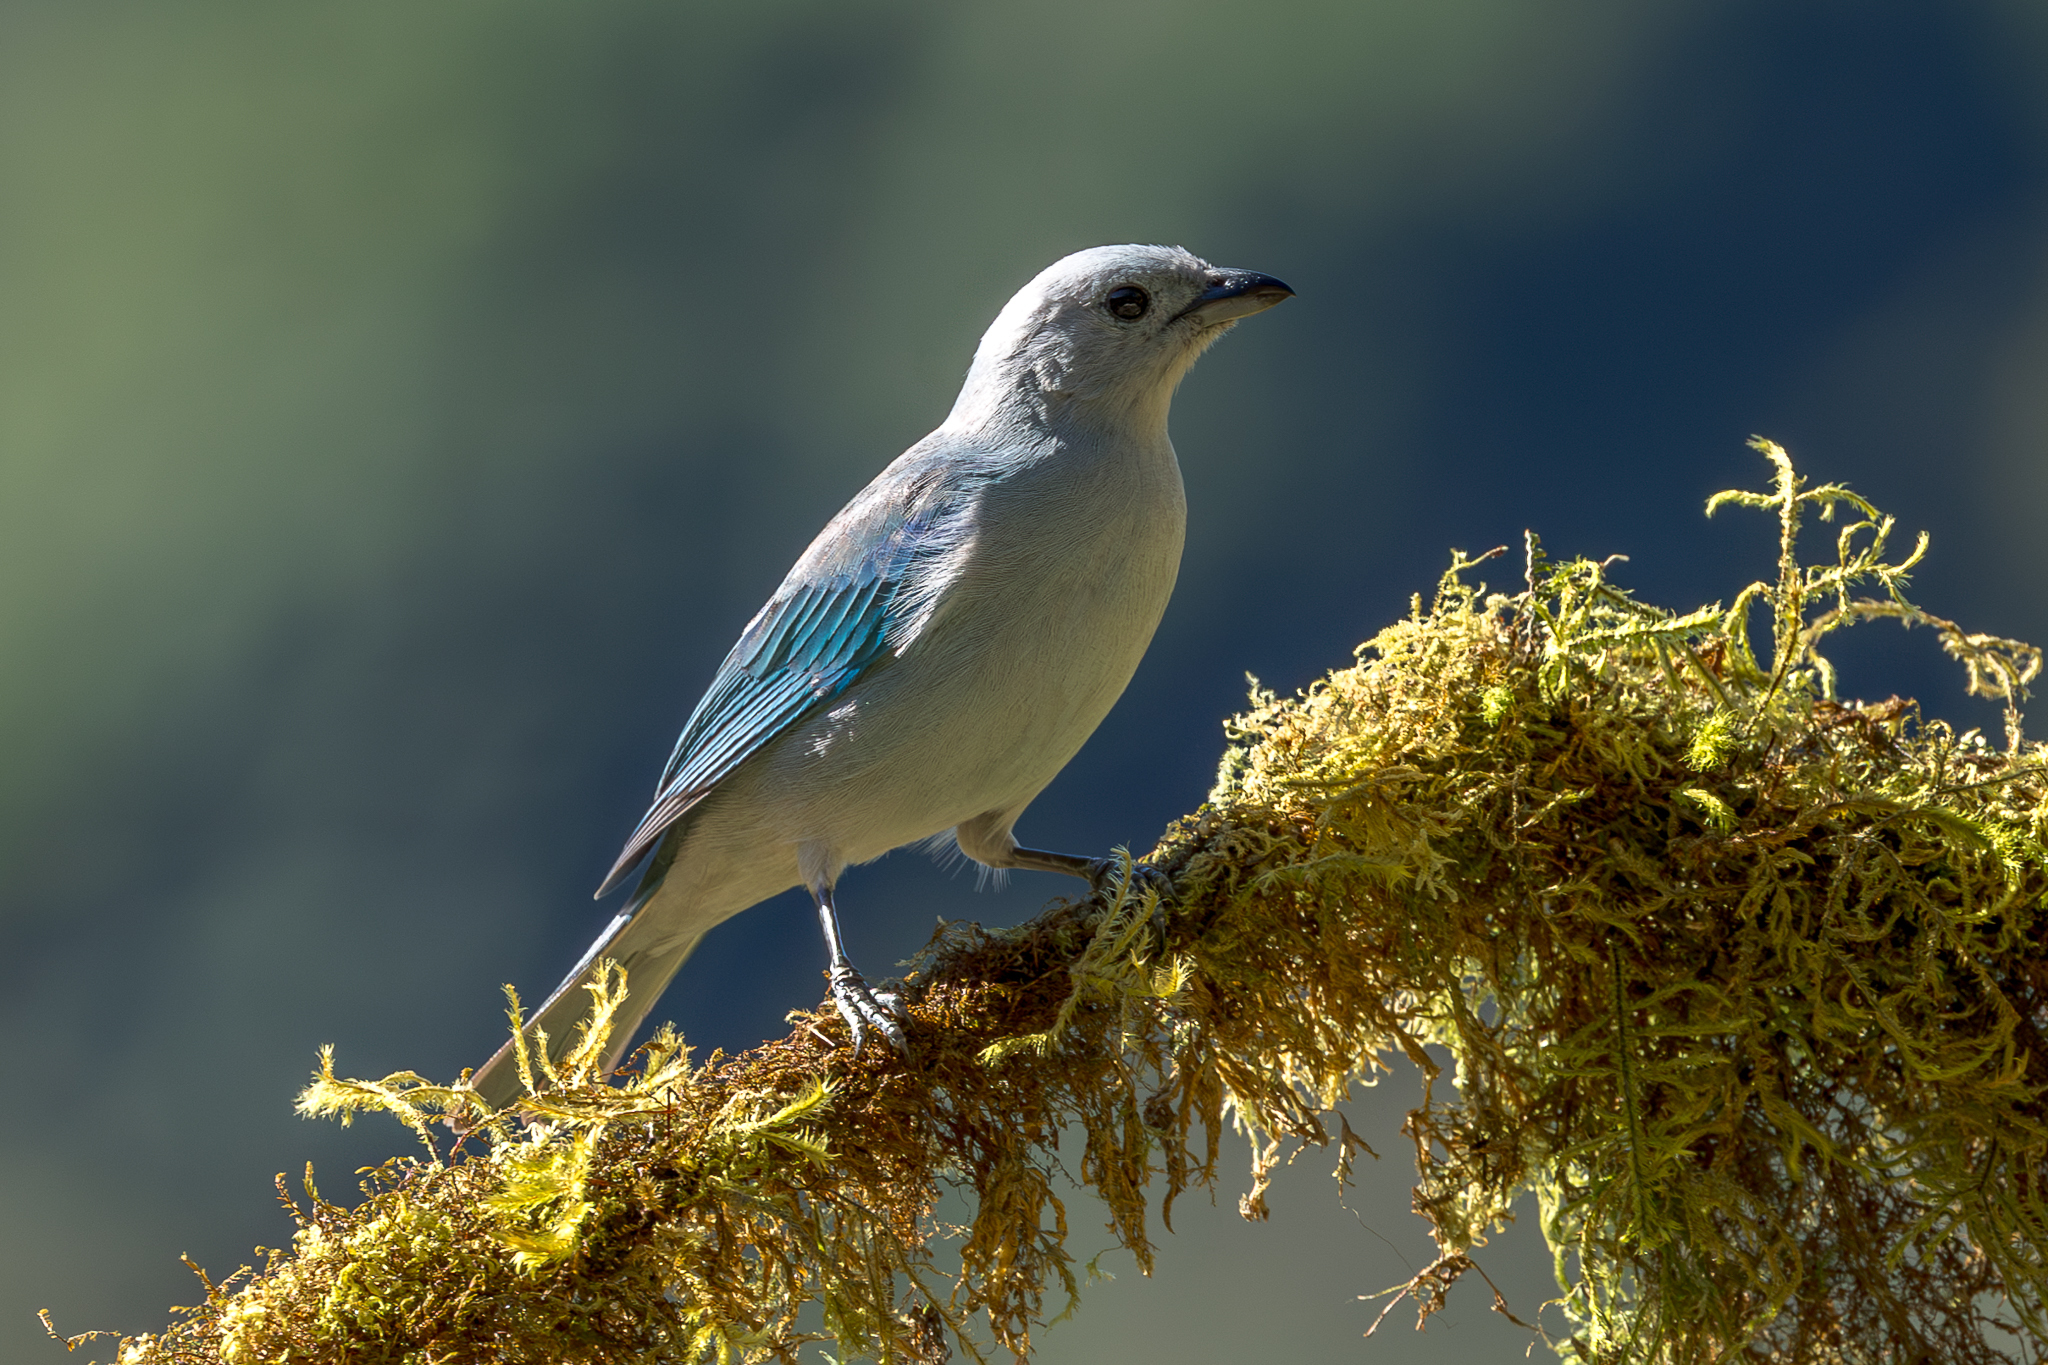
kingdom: Animalia
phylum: Chordata
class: Aves
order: Passeriformes
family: Thraupidae
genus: Thraupis
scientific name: Thraupis episcopus
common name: Blue-grey tanager
